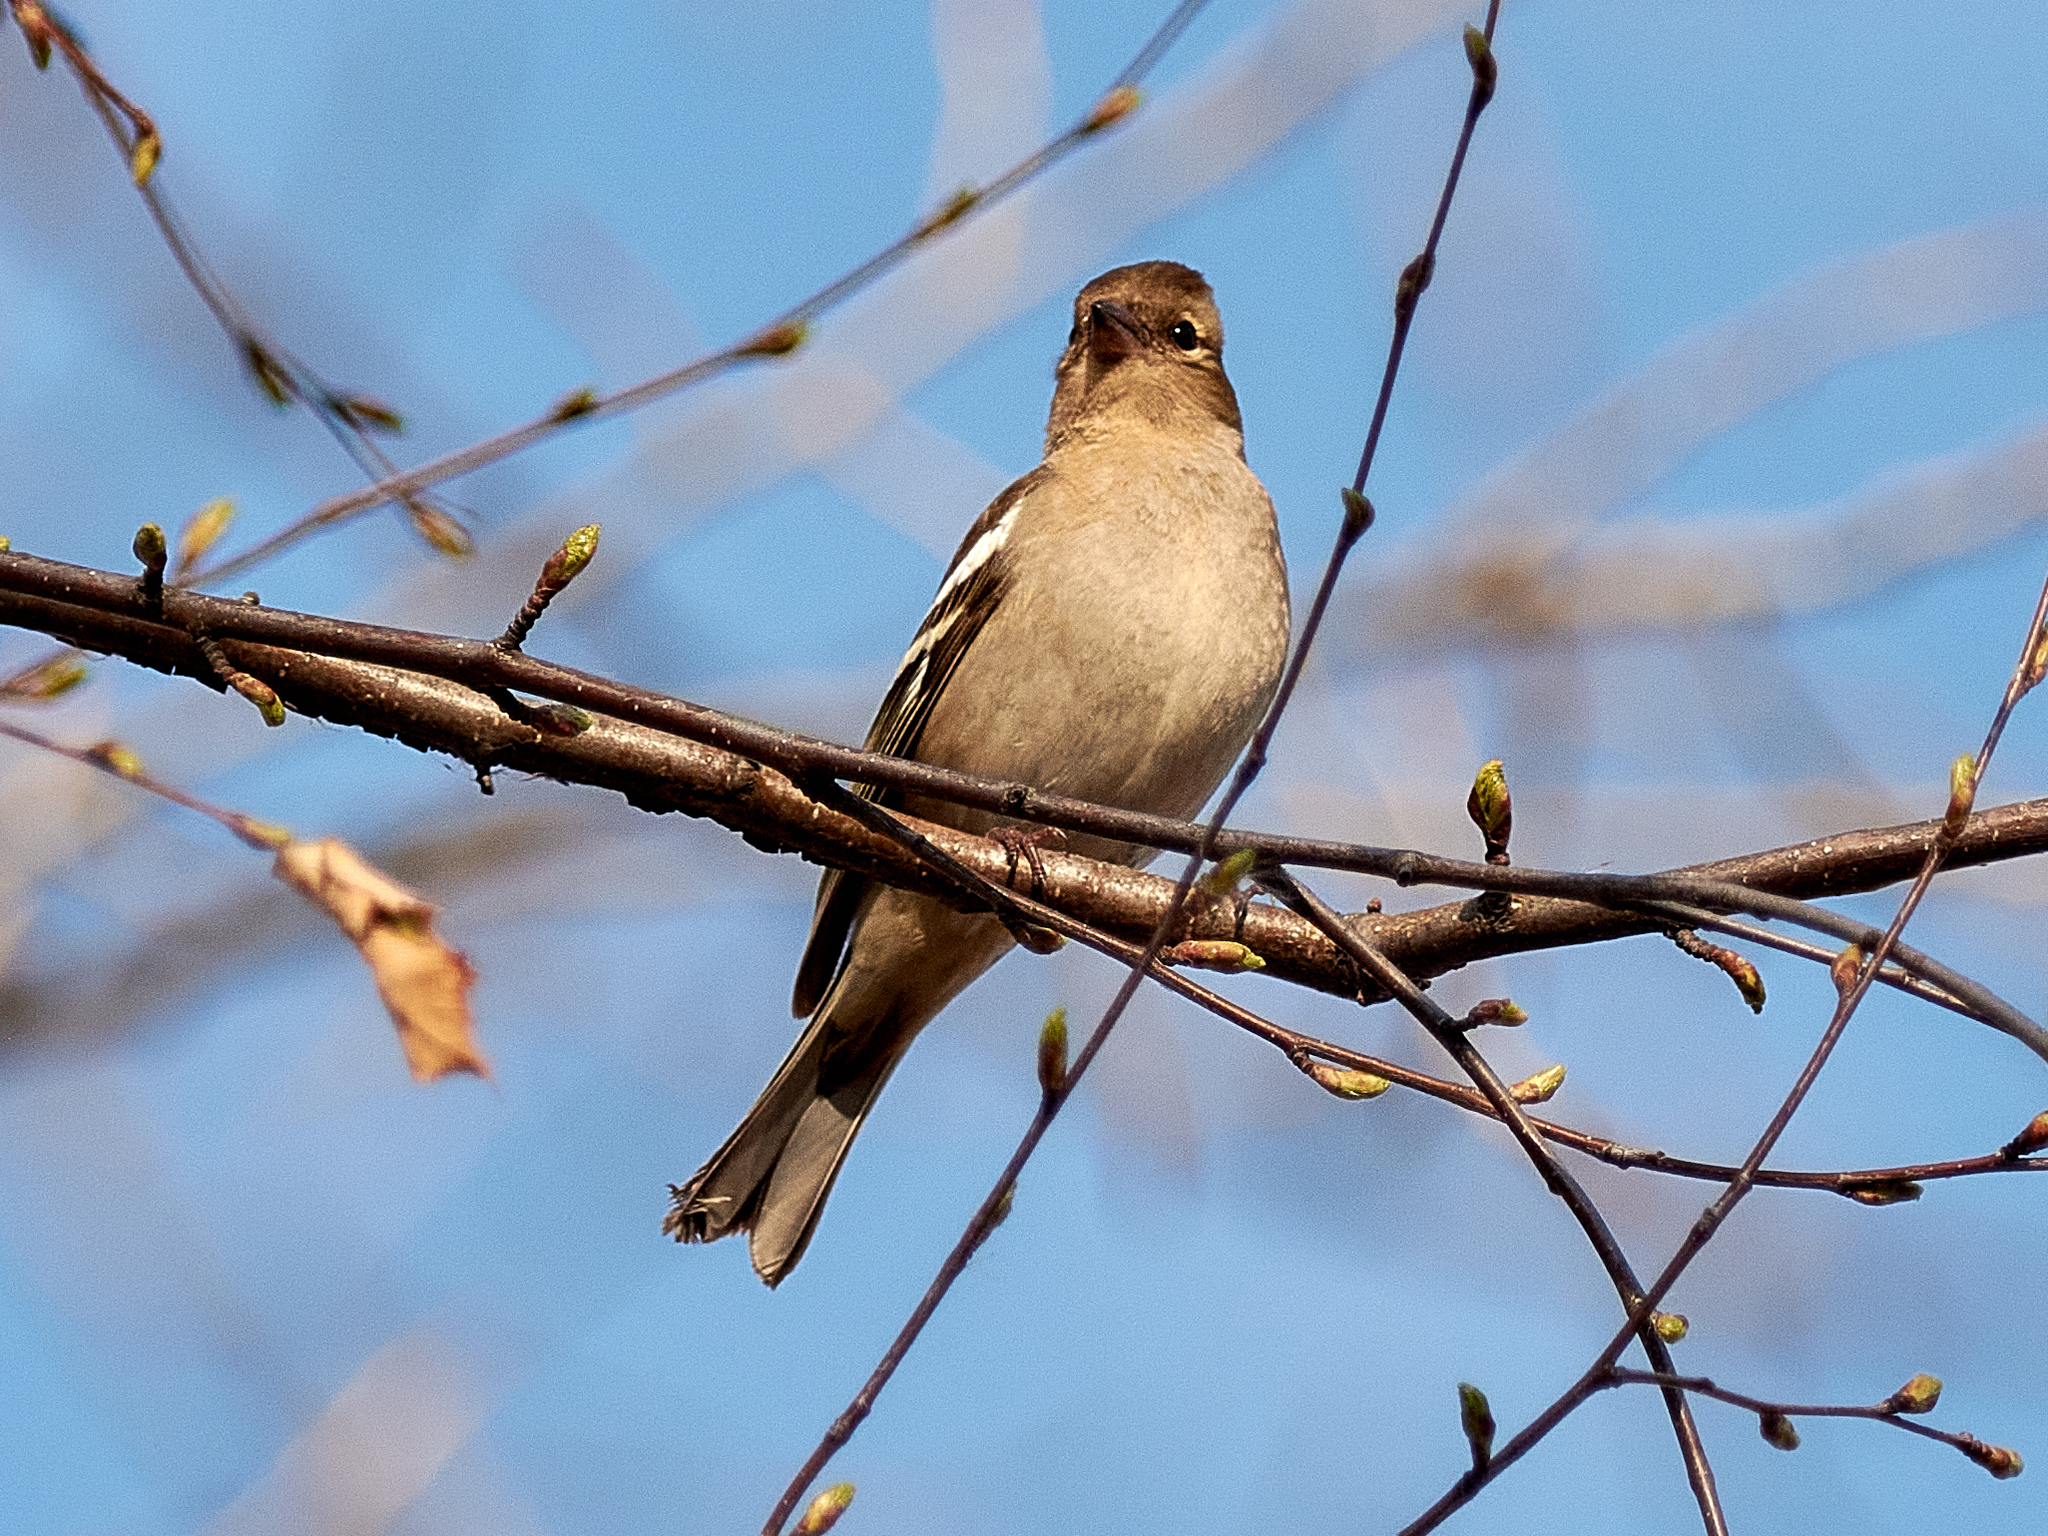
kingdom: Animalia
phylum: Chordata
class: Aves
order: Passeriformes
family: Fringillidae
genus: Fringilla
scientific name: Fringilla coelebs
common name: Common chaffinch
